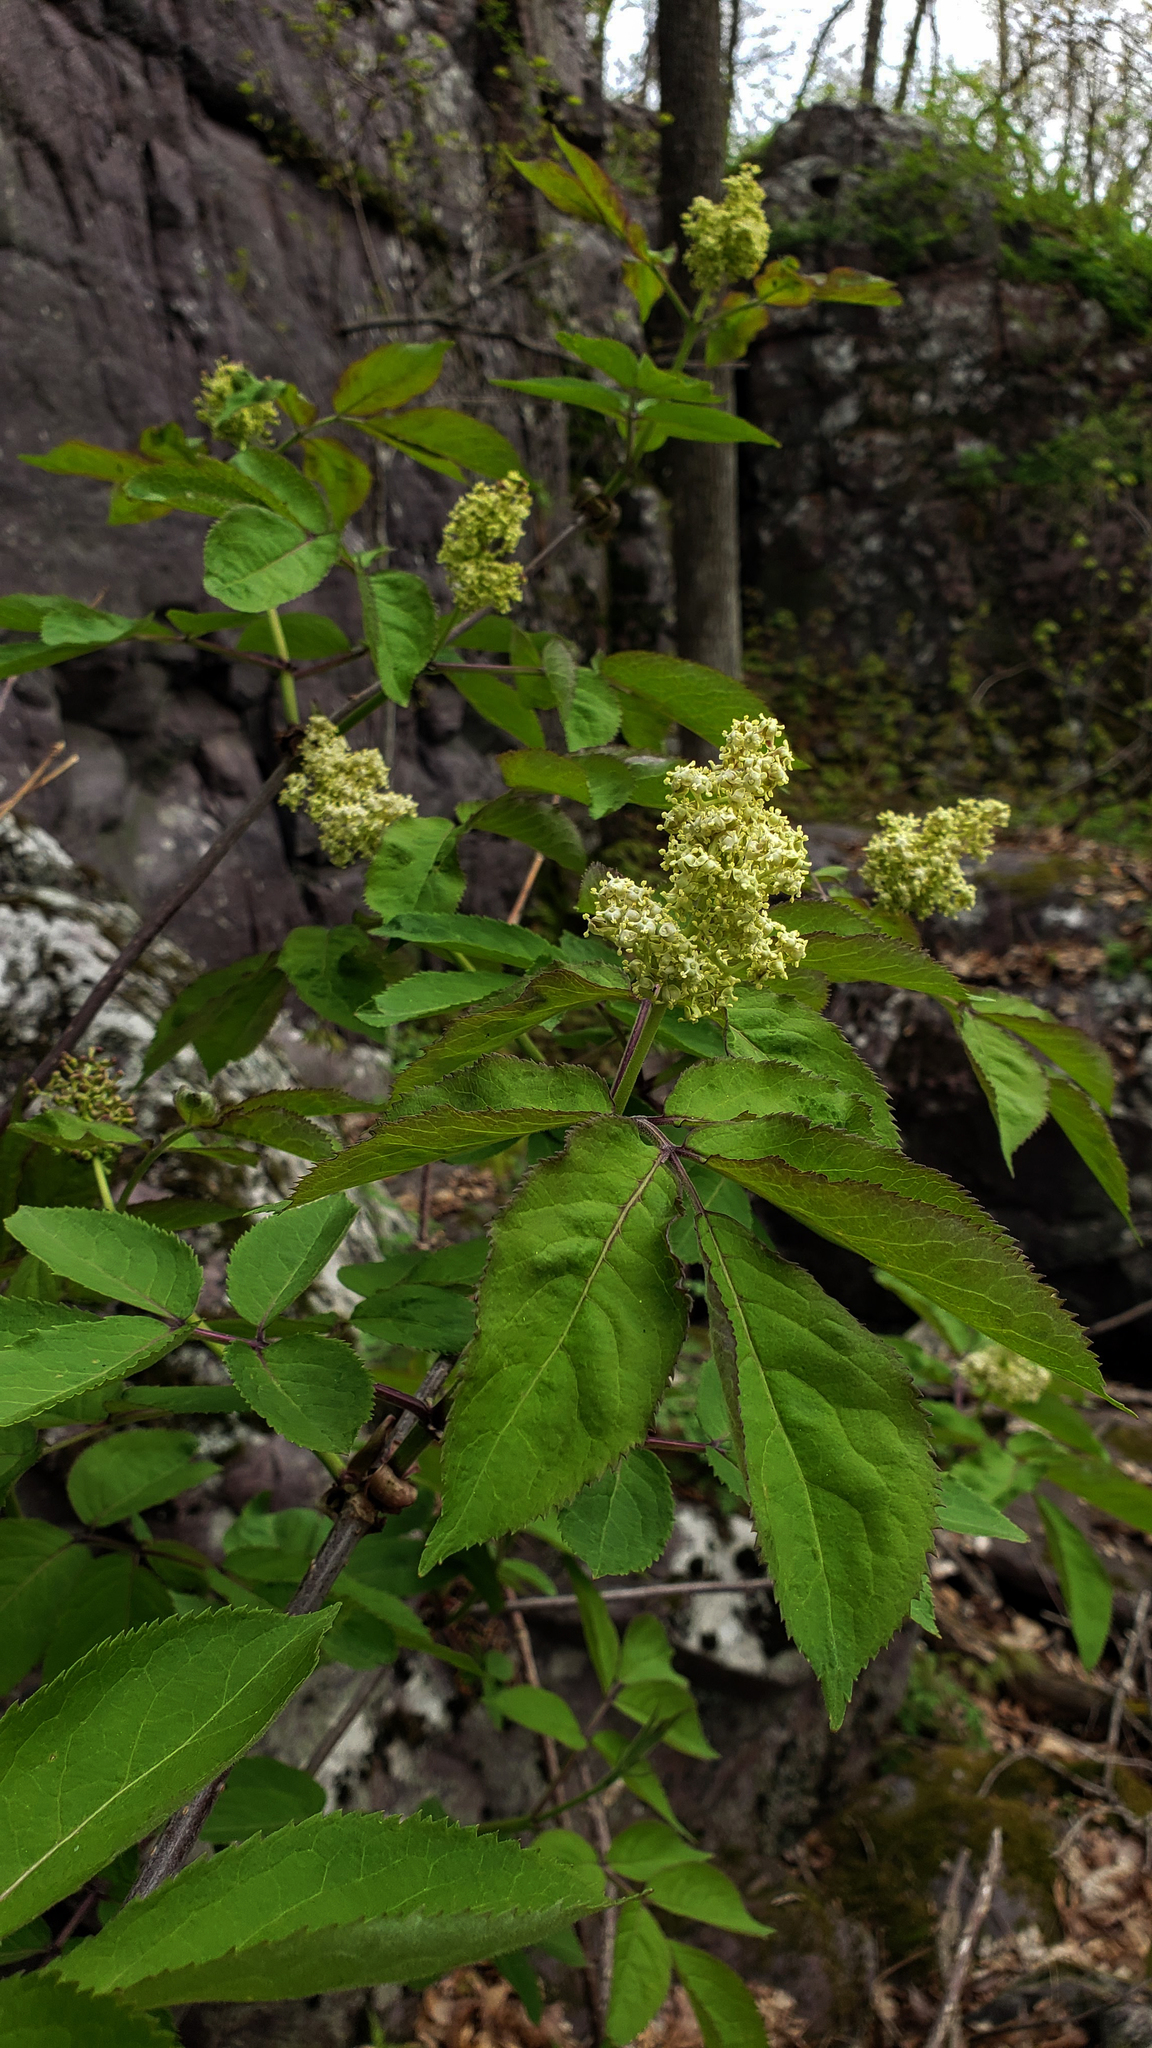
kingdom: Plantae
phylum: Tracheophyta
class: Magnoliopsida
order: Dipsacales
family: Viburnaceae
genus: Sambucus
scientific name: Sambucus racemosa
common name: Red-berried elder
